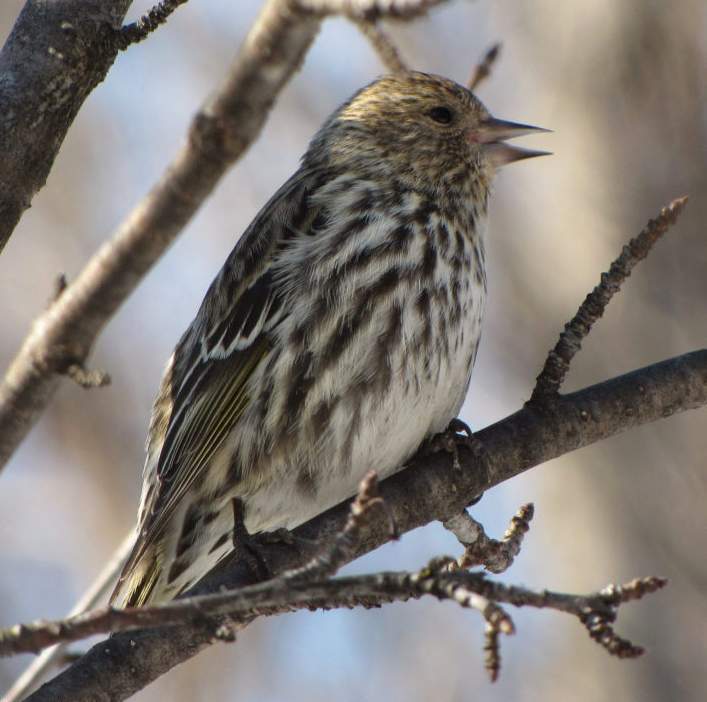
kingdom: Animalia
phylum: Chordata
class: Aves
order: Passeriformes
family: Fringillidae
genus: Spinus
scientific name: Spinus pinus
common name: Pine siskin
